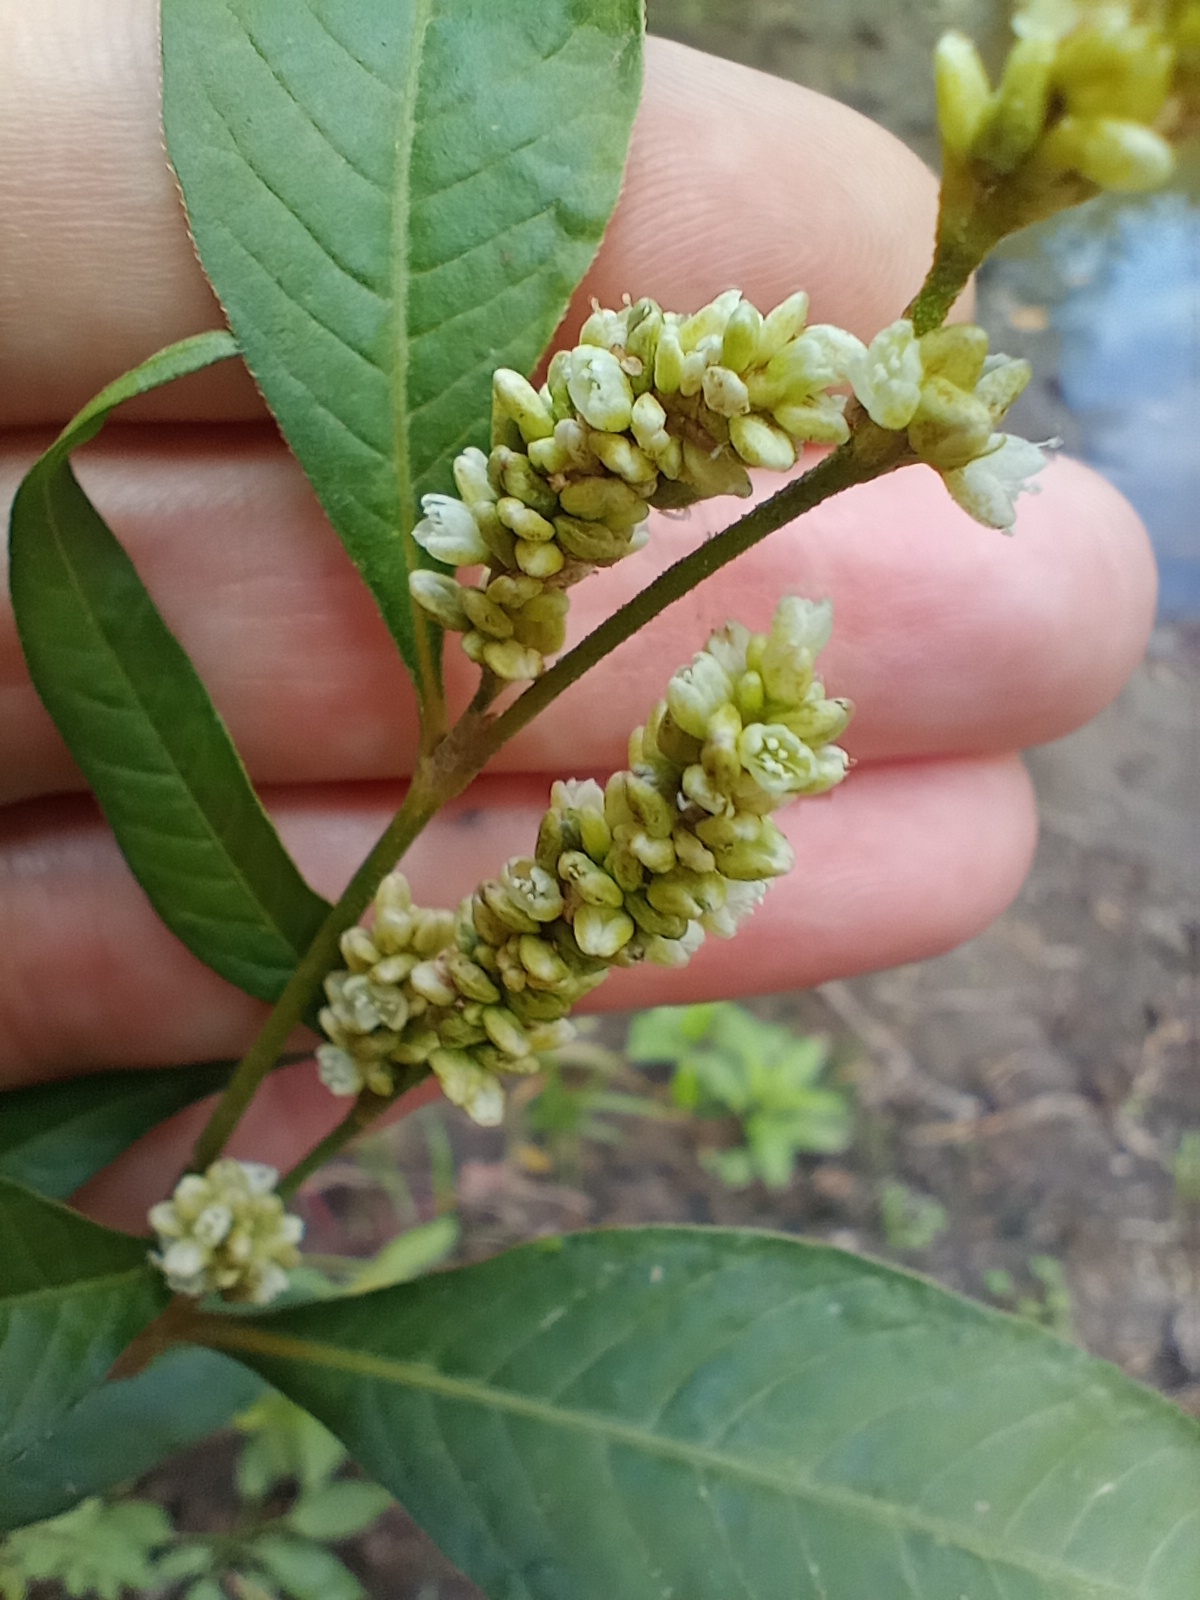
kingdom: Plantae
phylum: Tracheophyta
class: Magnoliopsida
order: Caryophyllales
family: Polygonaceae
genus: Persicaria
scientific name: Persicaria lapathifolia
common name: Curlytop knotweed
